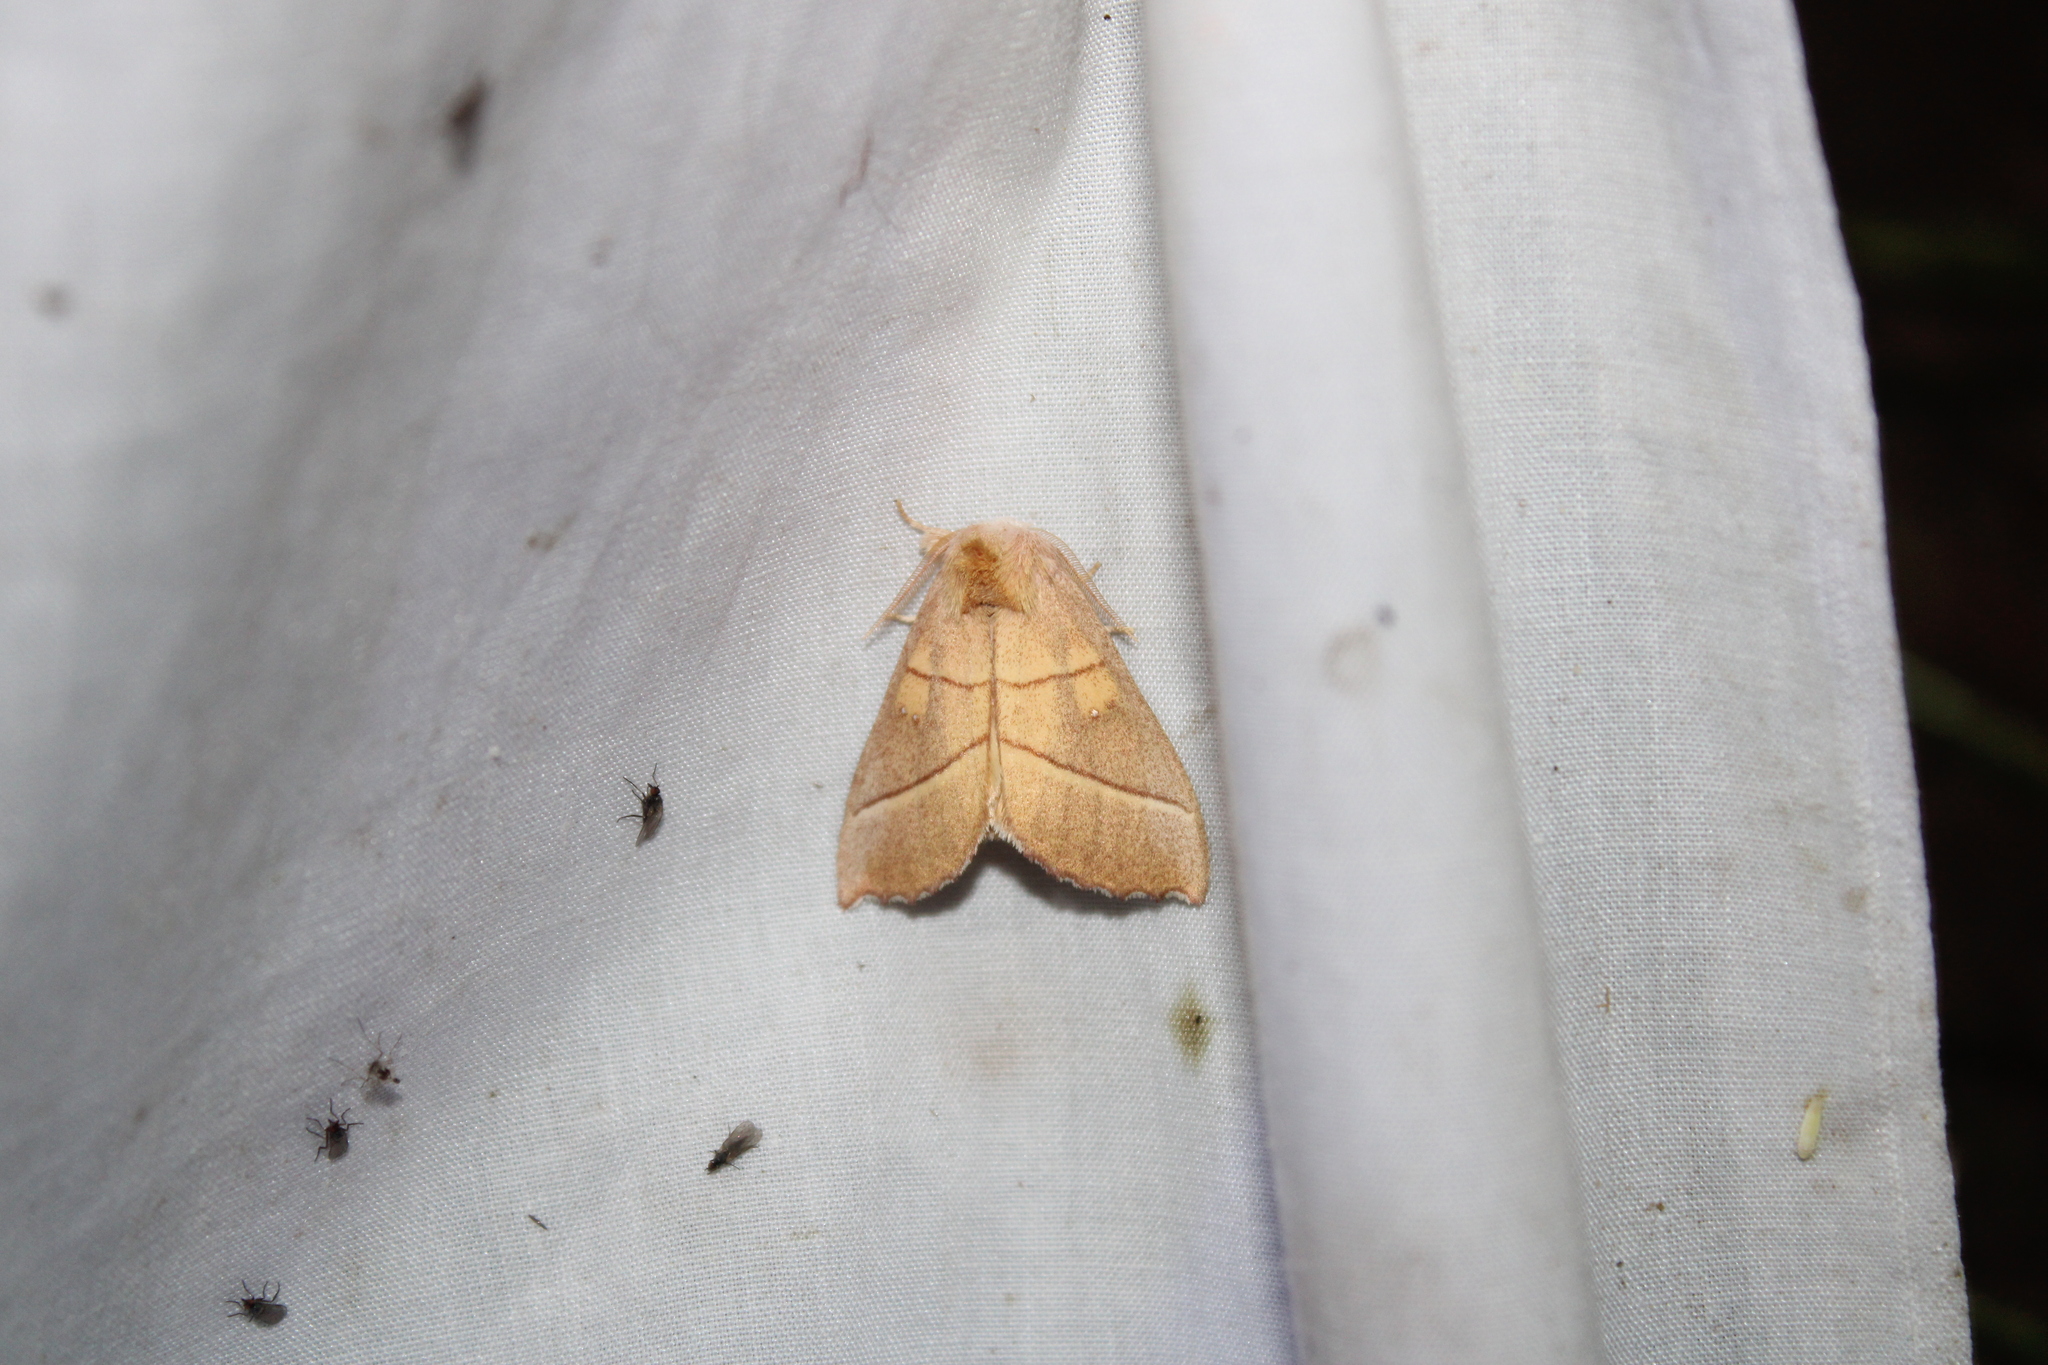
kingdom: Animalia
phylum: Arthropoda
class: Insecta
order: Lepidoptera
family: Notodontidae
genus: Nadata
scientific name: Nadata gibbosa
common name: White-dotted prominent
